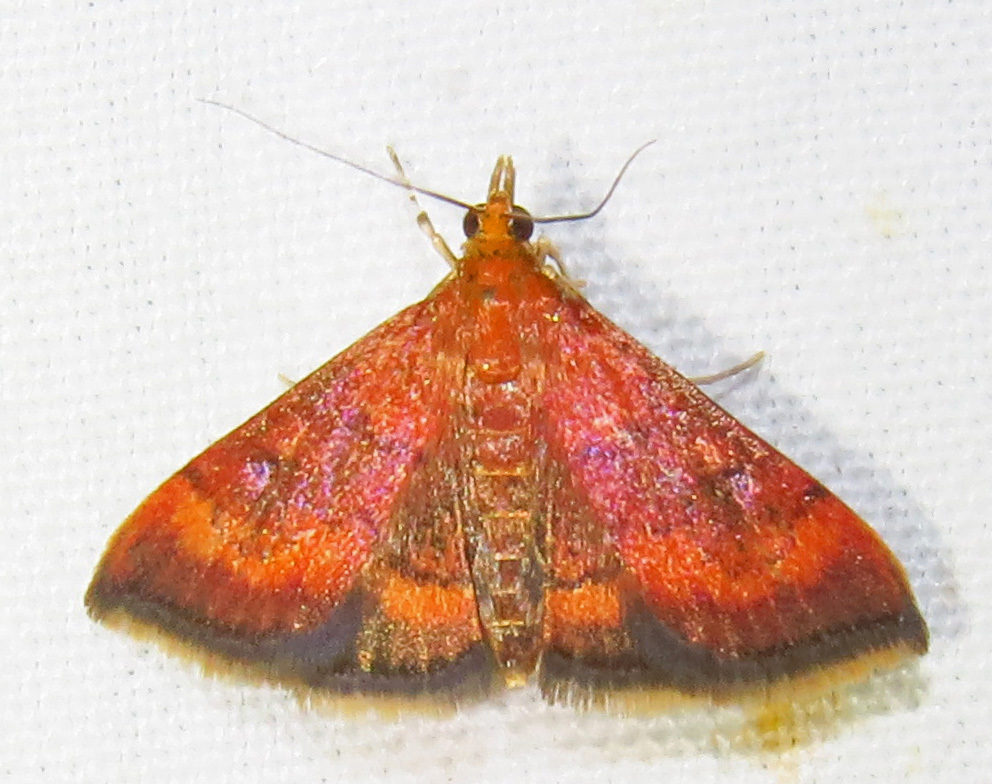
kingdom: Animalia
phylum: Arthropoda
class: Insecta
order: Lepidoptera
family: Crambidae
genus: Pyrausta
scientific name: Pyrausta rubricalis
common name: Variable reddish pyrausta
